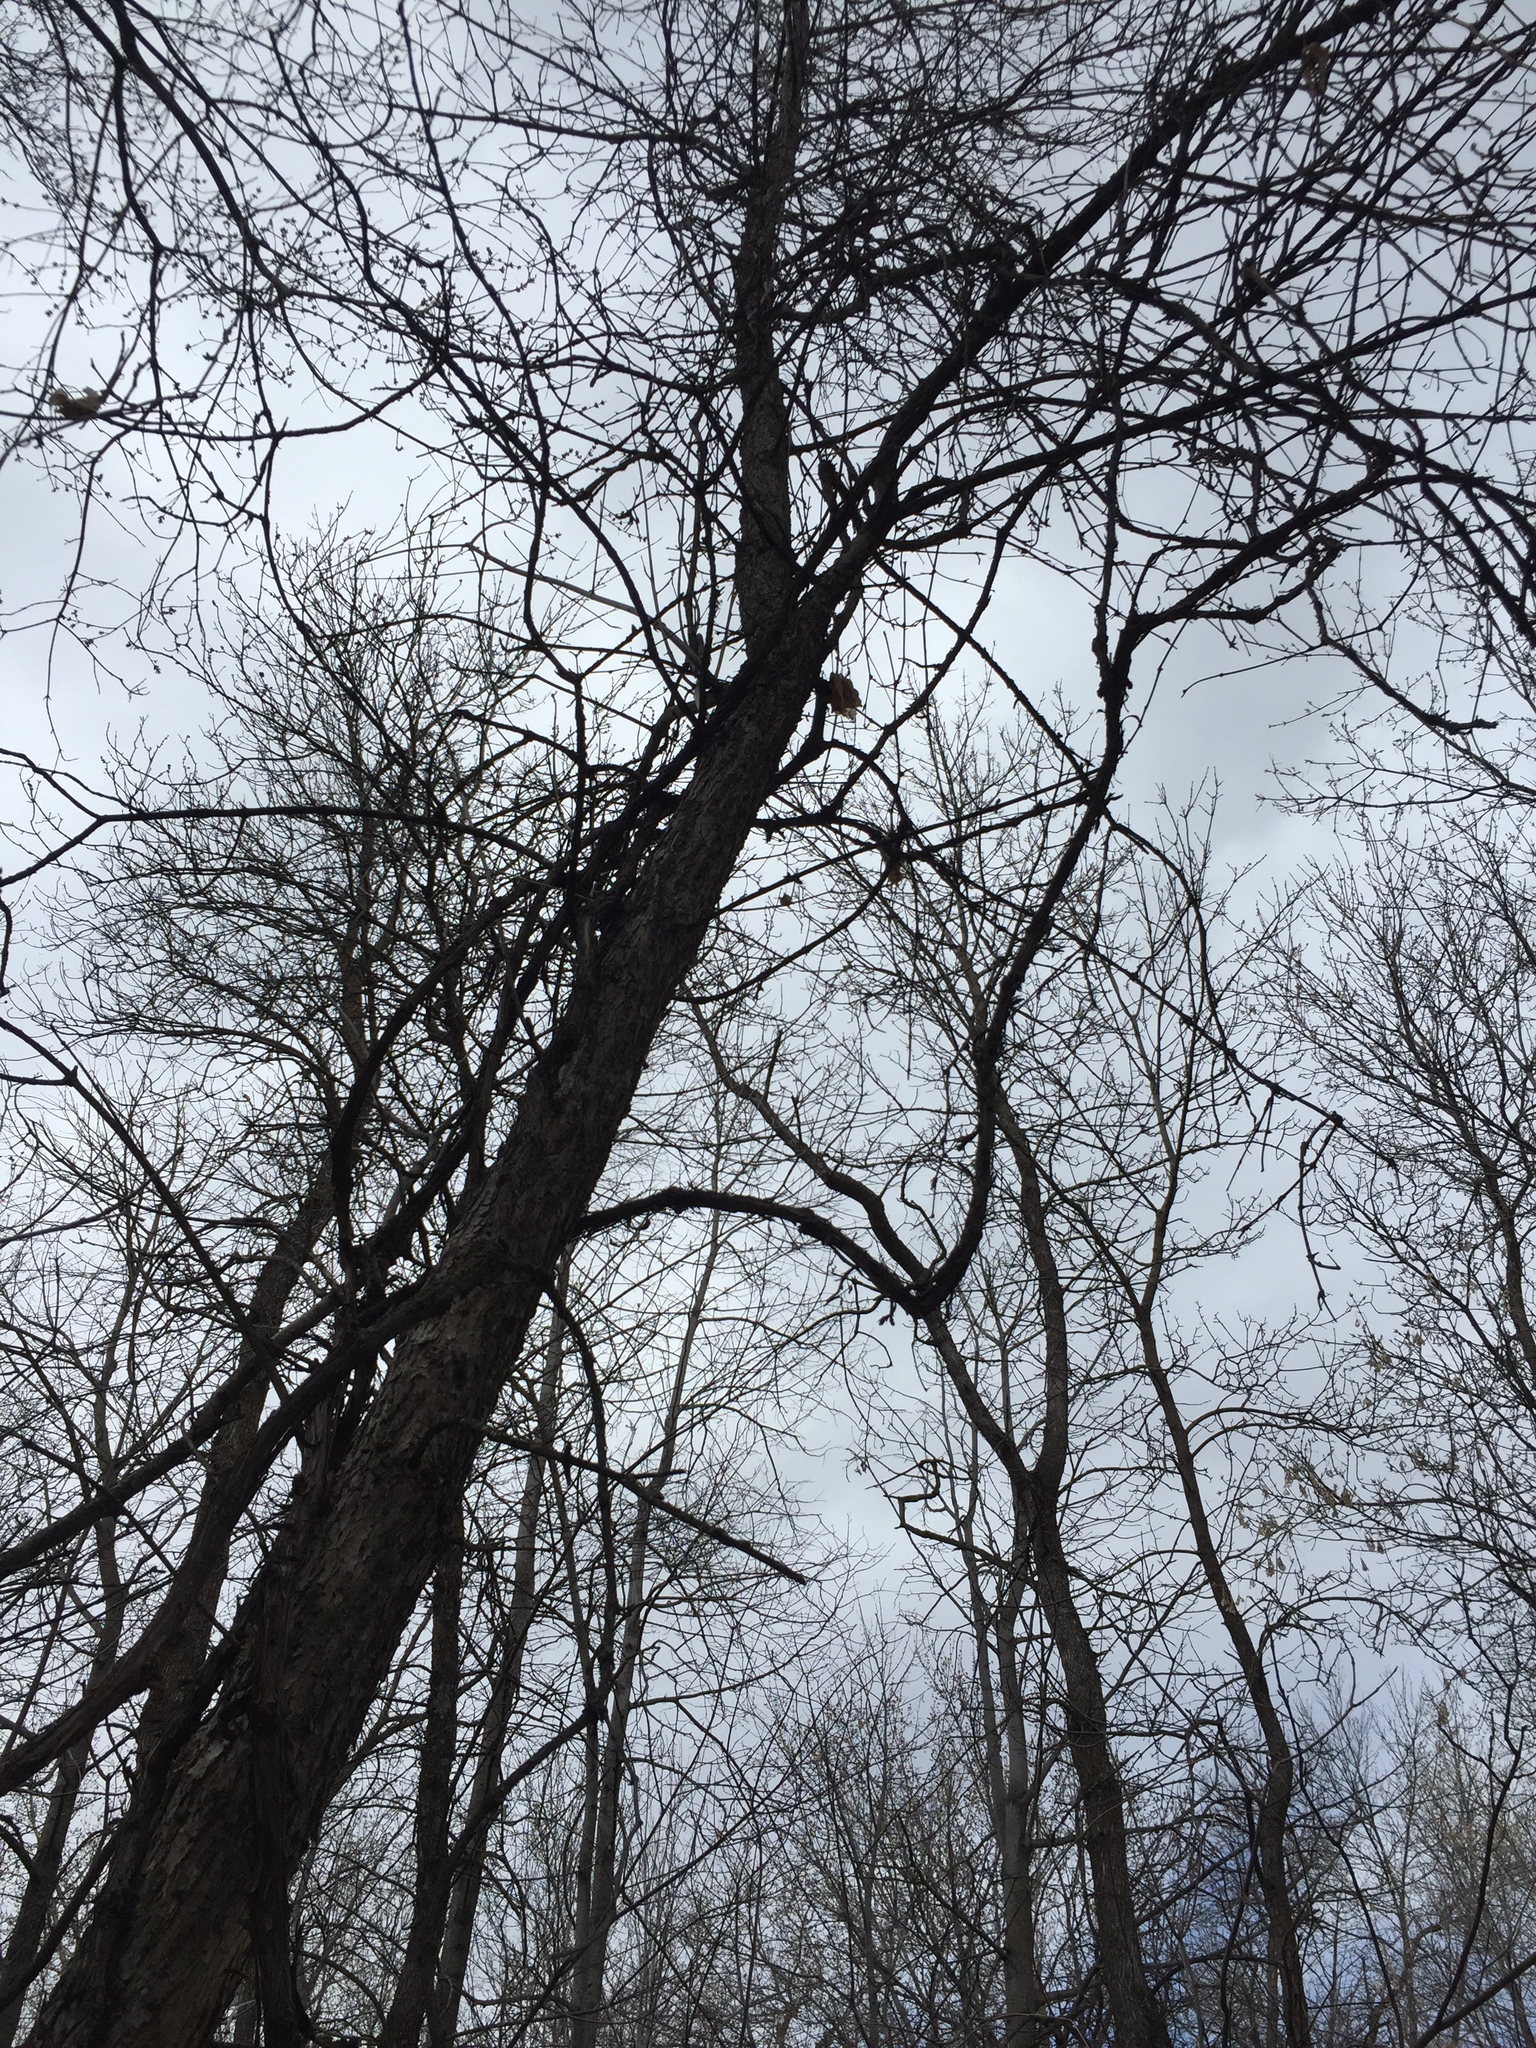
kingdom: Plantae
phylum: Tracheophyta
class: Magnoliopsida
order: Vitales
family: Vitaceae
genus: Vitis
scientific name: Vitis riparia
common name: Frost grape
